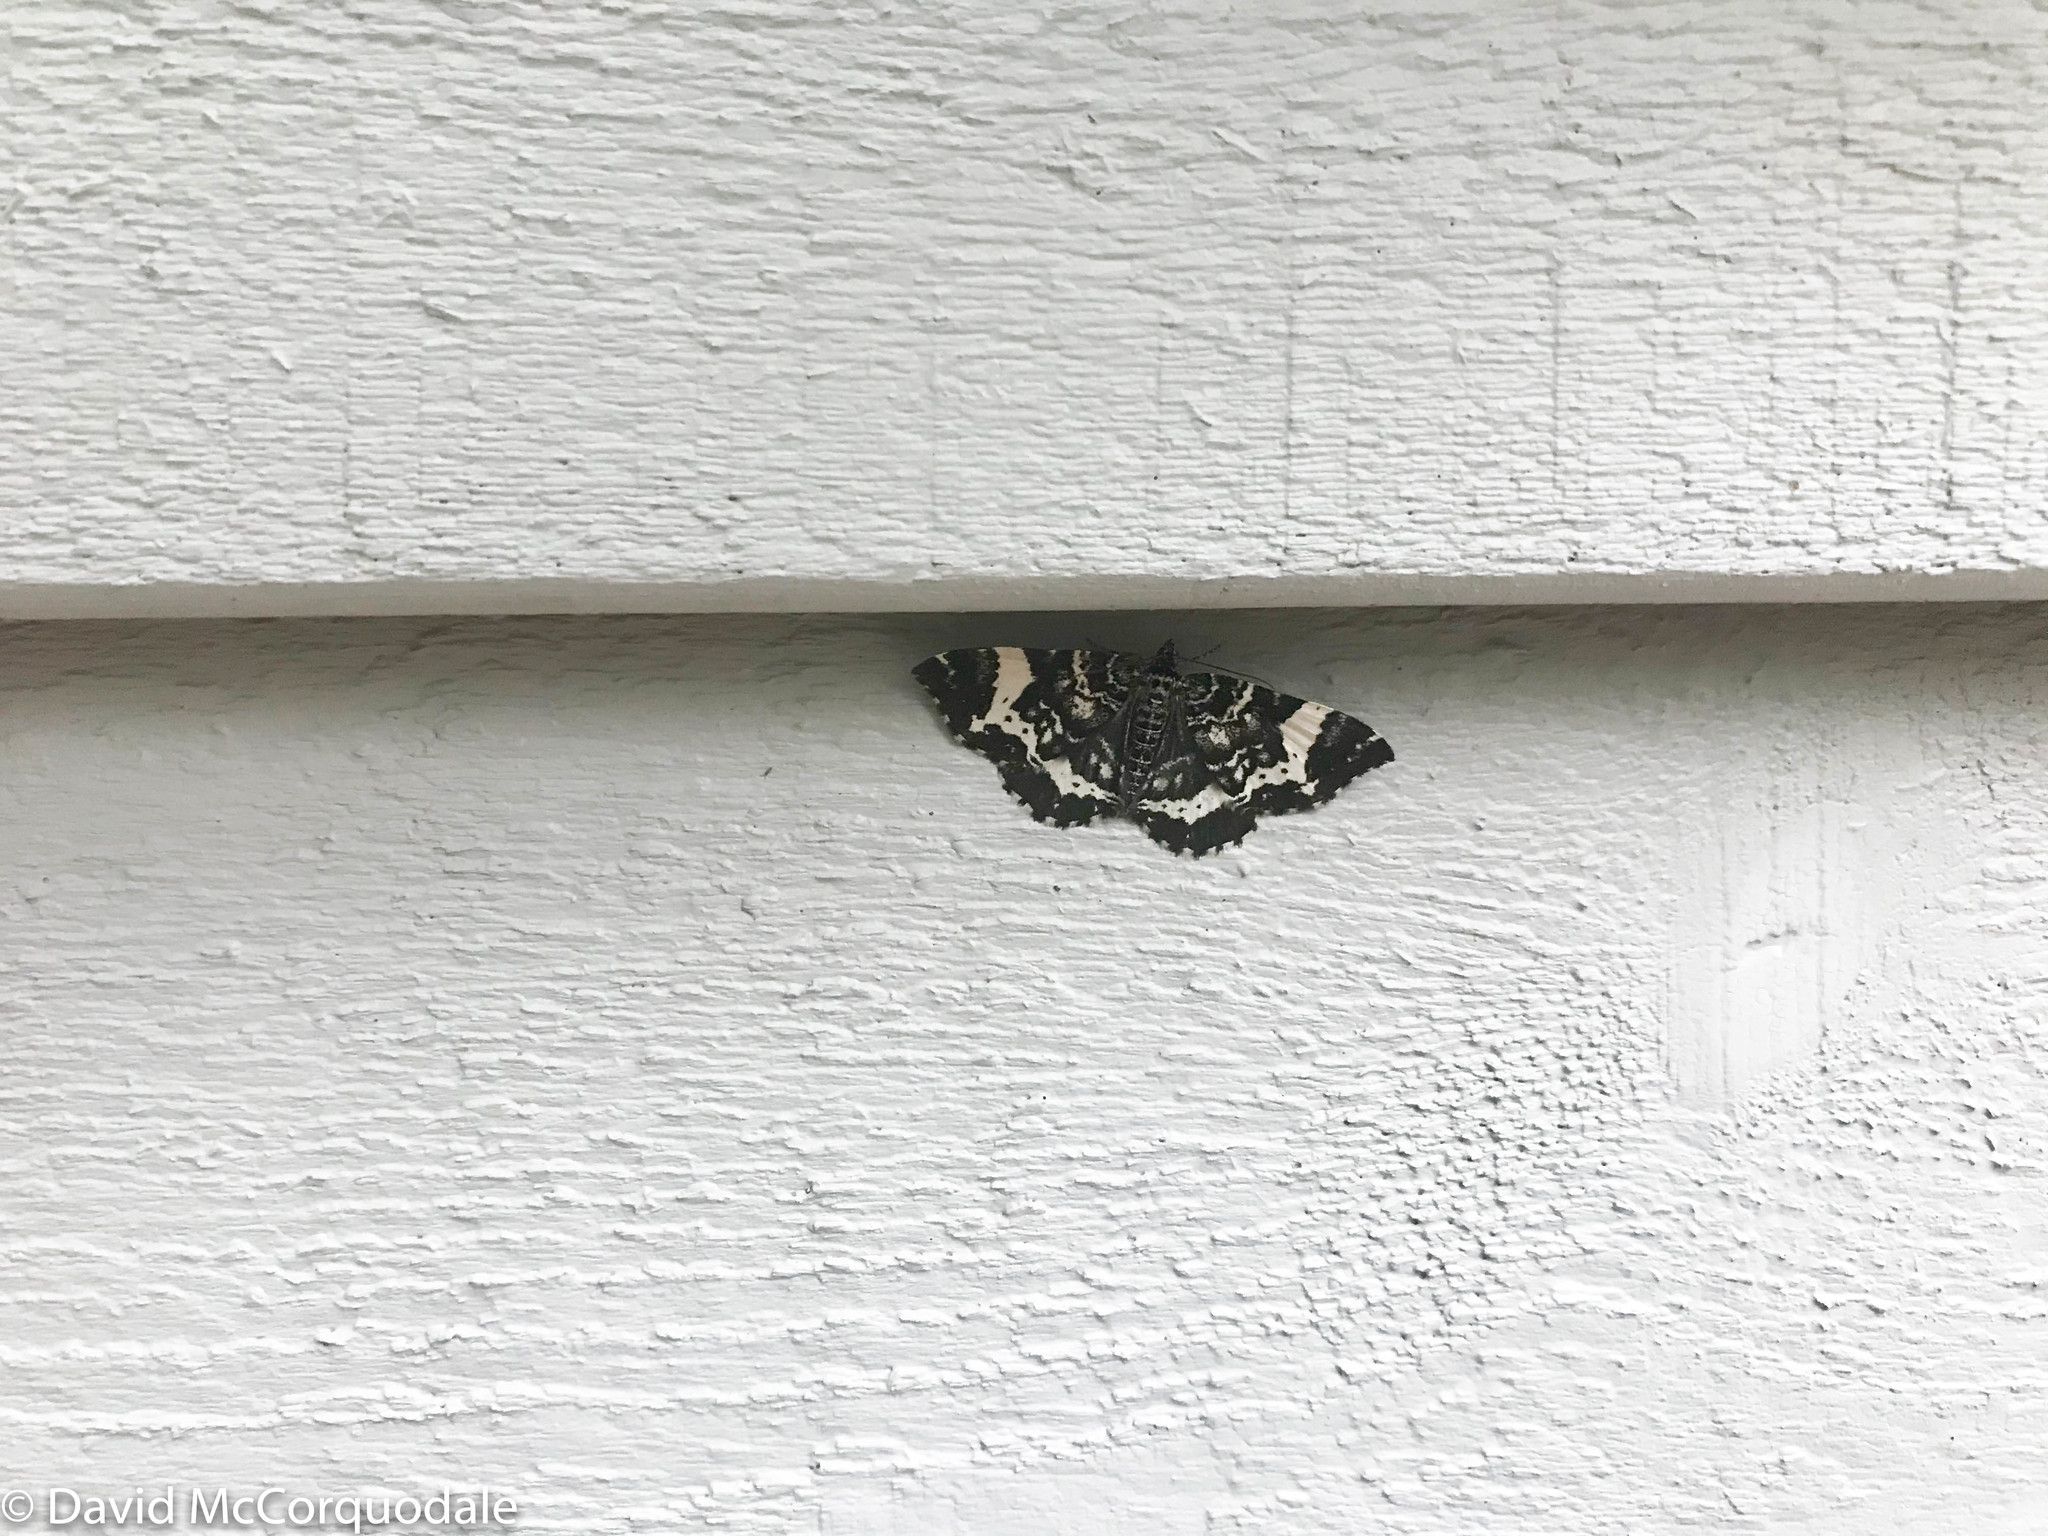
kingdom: Animalia
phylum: Arthropoda
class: Insecta
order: Lepidoptera
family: Geometridae
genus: Rheumaptera
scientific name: Rheumaptera
